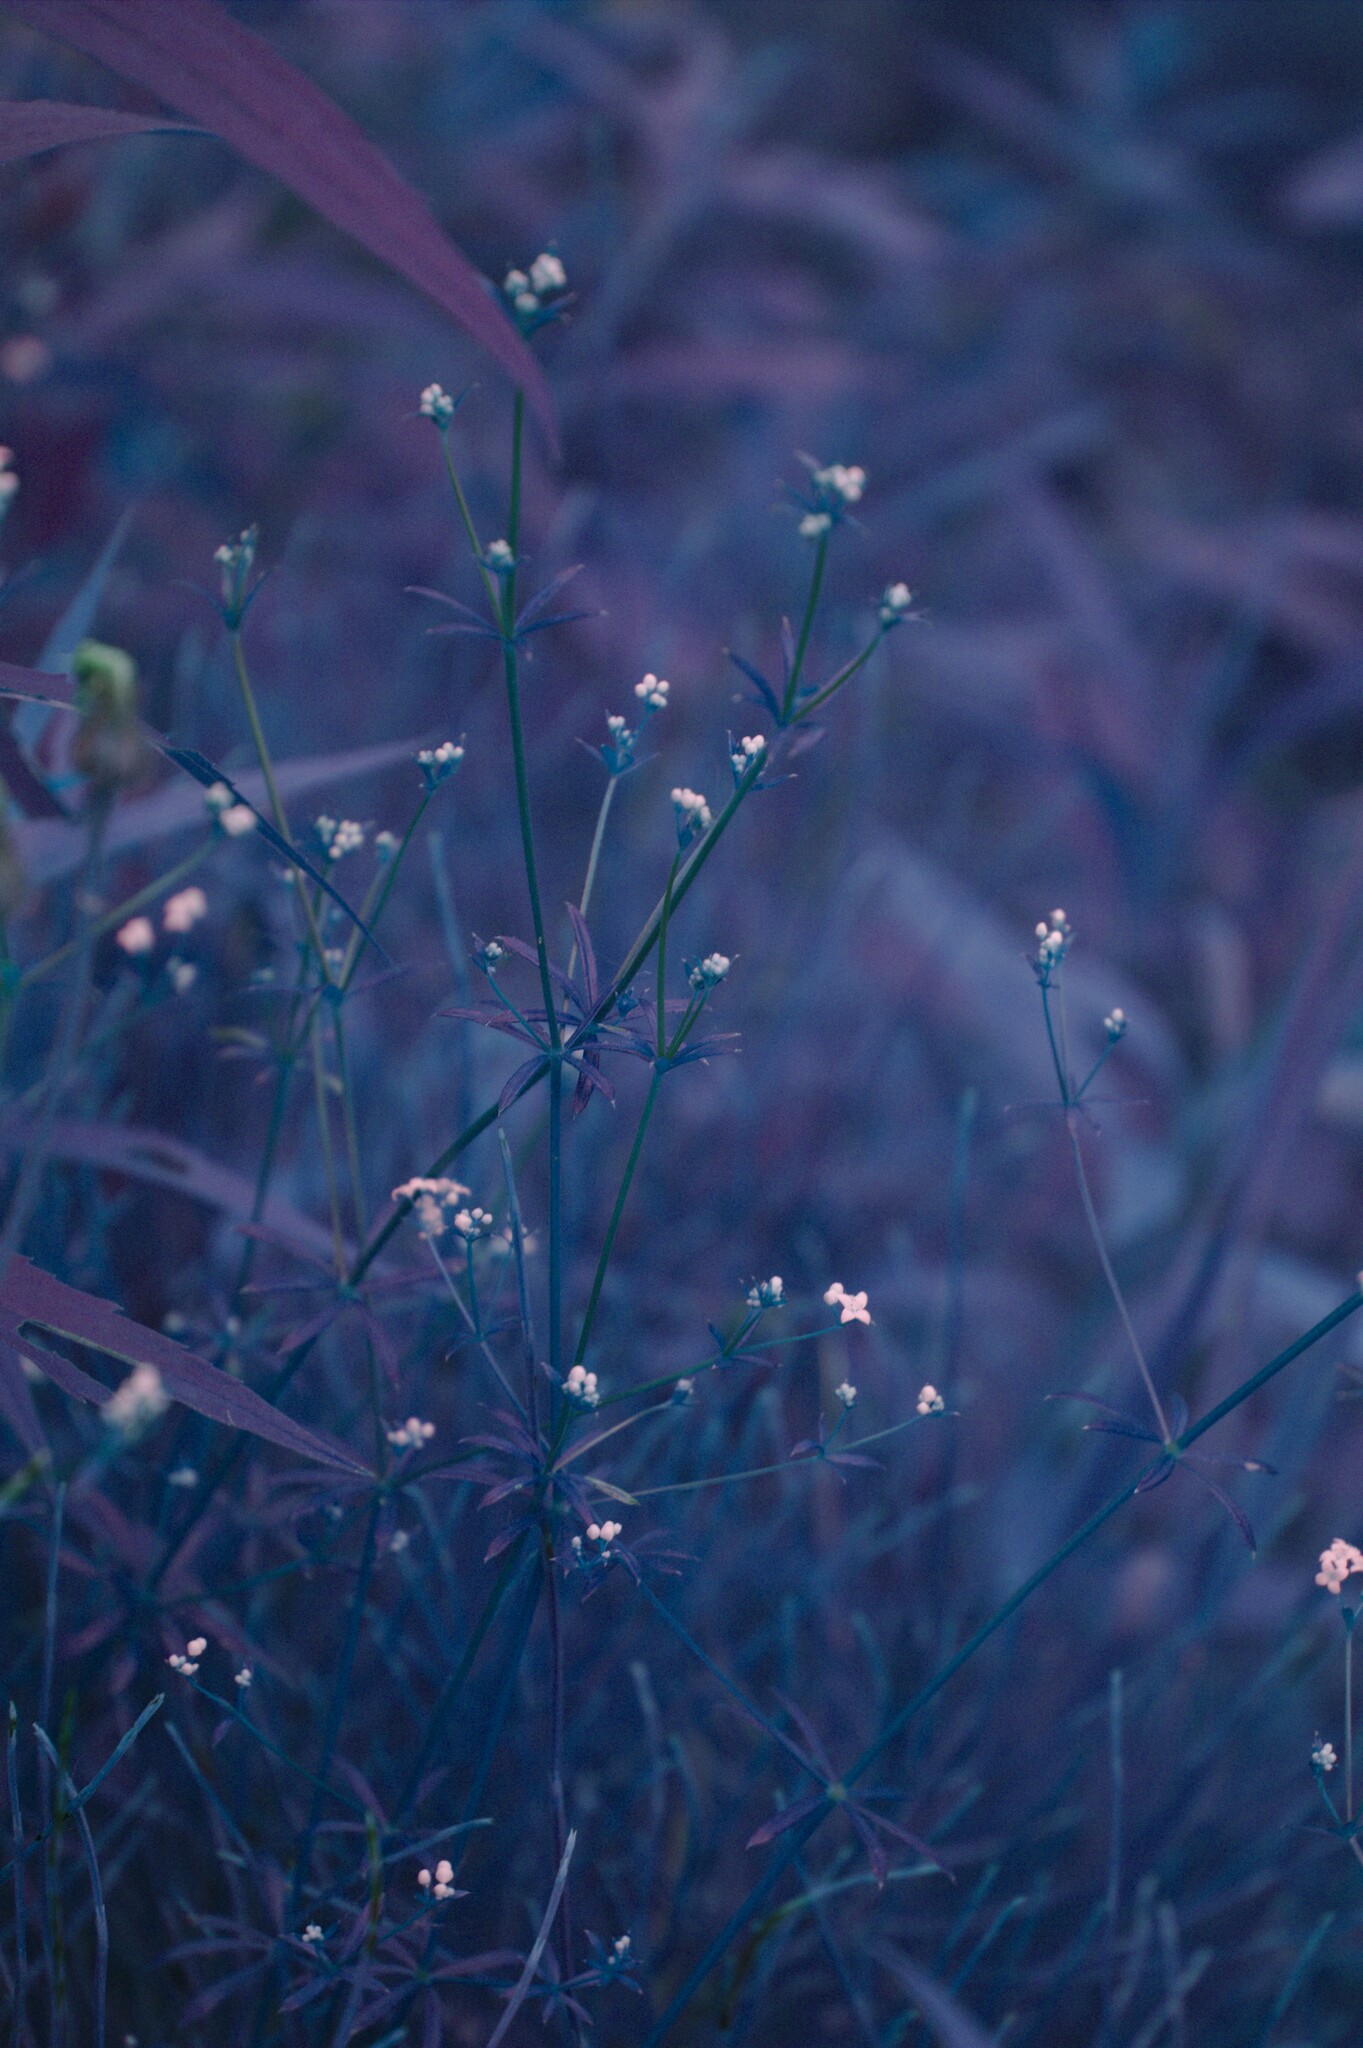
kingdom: Plantae
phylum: Tracheophyta
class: Magnoliopsida
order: Gentianales
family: Rubiaceae
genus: Galium
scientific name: Galium aparine
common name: Cleavers
